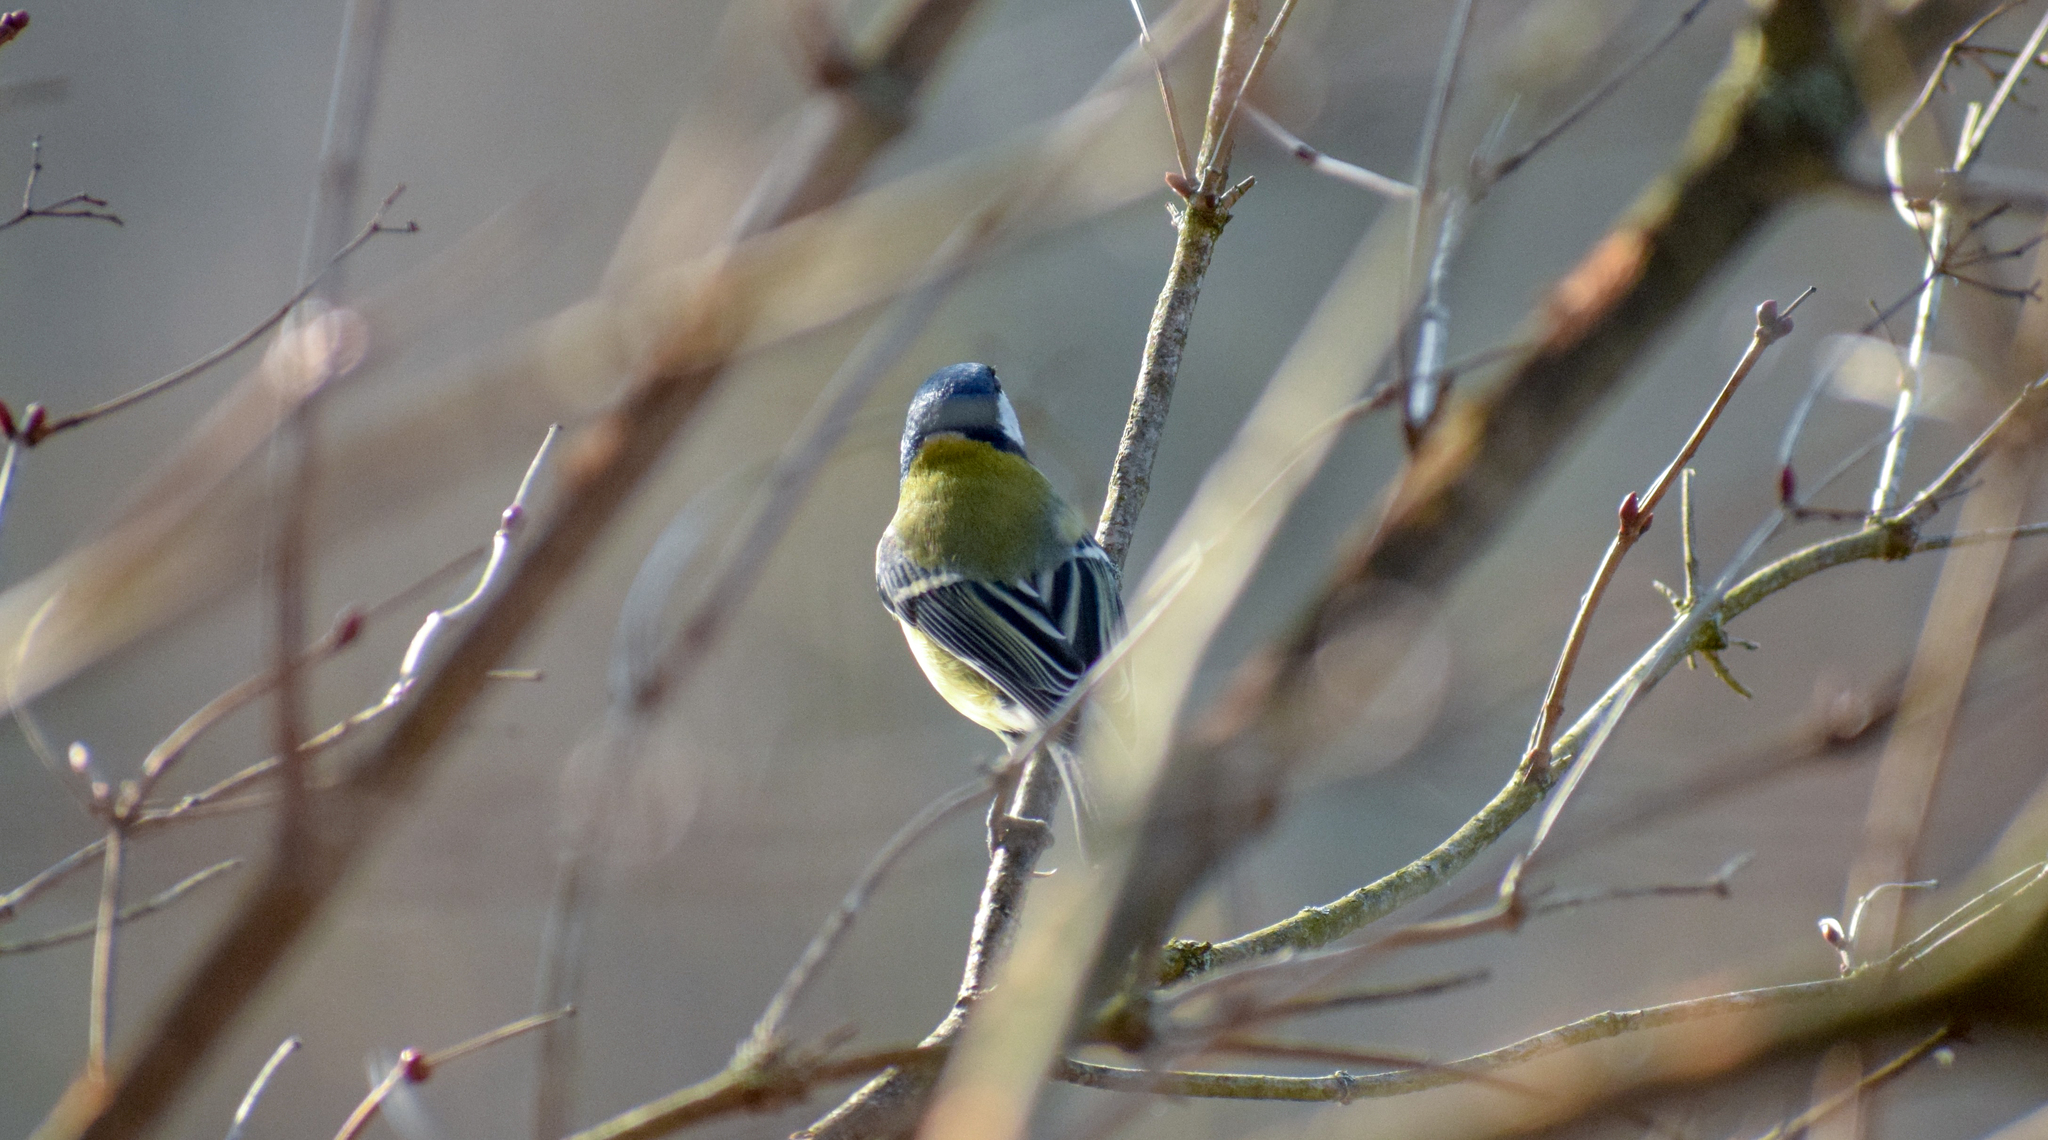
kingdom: Animalia
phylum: Chordata
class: Aves
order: Passeriformes
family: Paridae
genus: Parus
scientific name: Parus major
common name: Great tit
